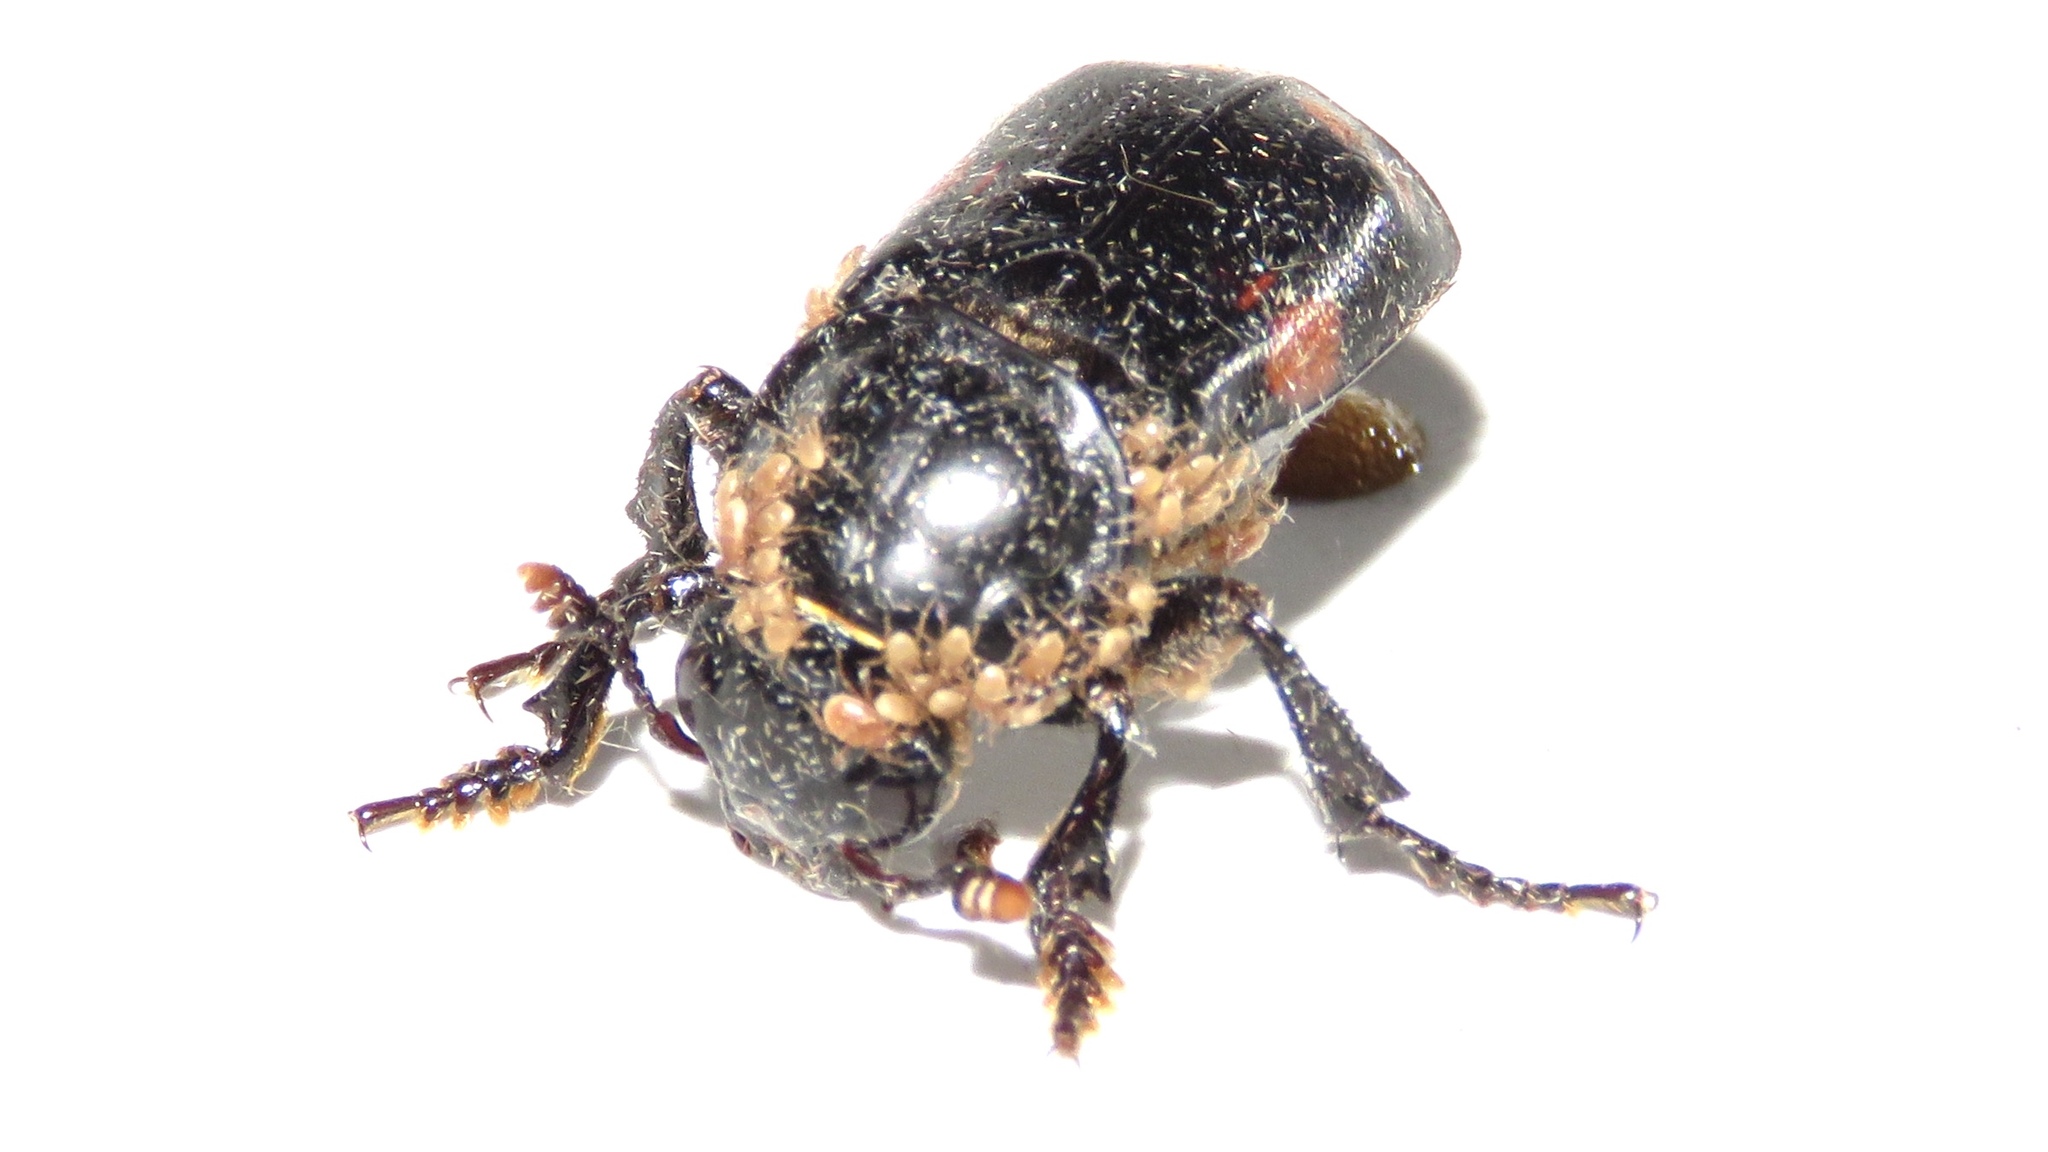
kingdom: Animalia
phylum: Arthropoda
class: Insecta
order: Coleoptera
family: Staphylinidae
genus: Nicrophorus
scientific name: Nicrophorus pustulatus
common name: Pustulated carrion beetle
